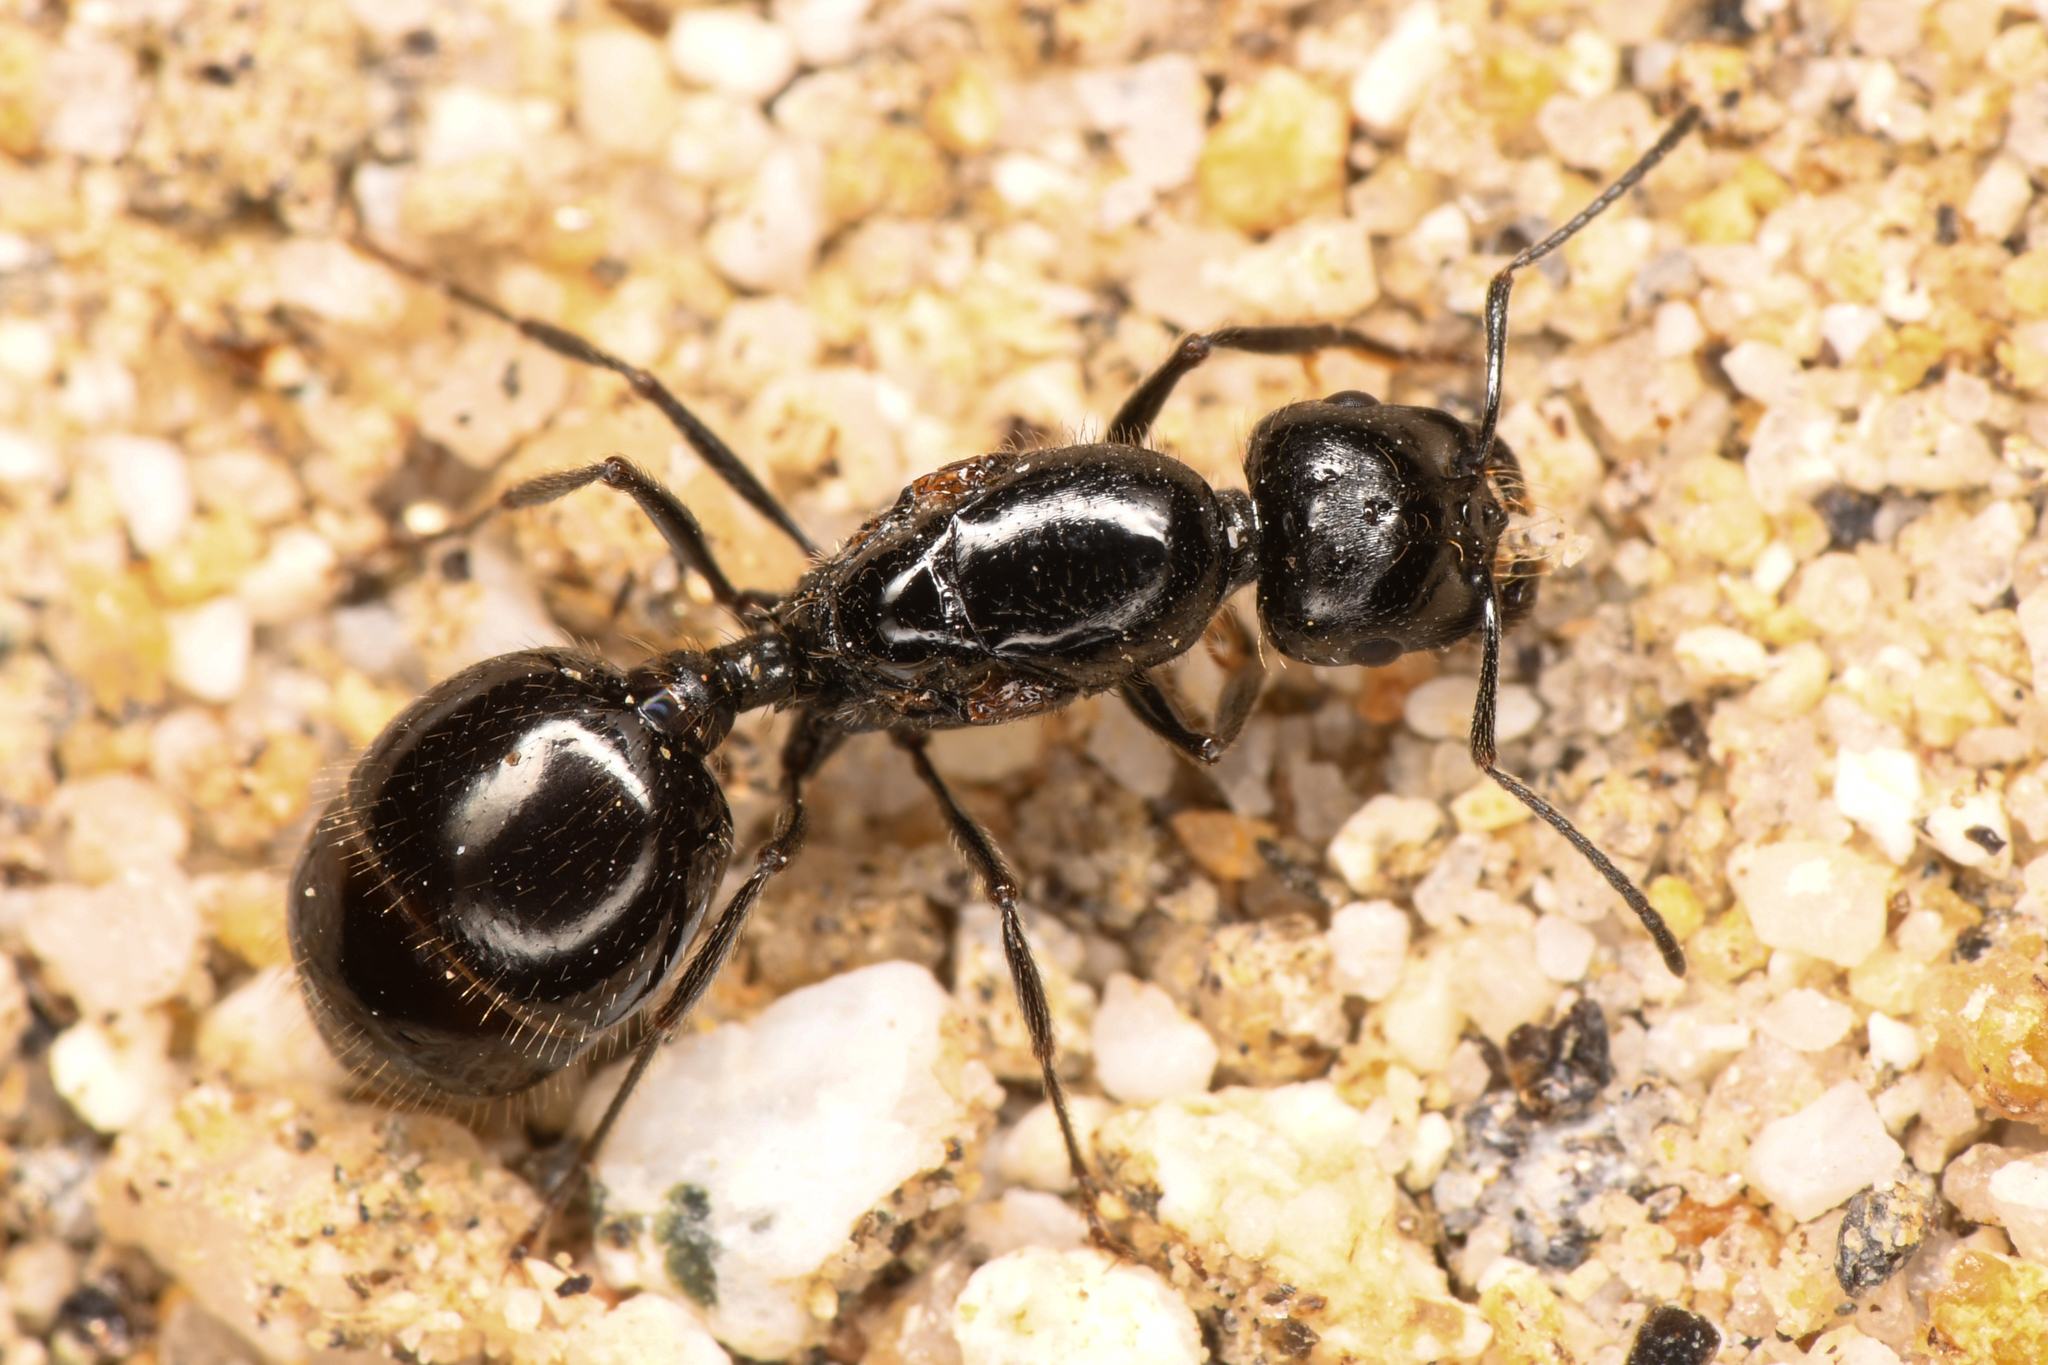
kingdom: Animalia
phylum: Arthropoda
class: Insecta
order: Hymenoptera
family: Formicidae
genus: Messor
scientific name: Messor pergandei
